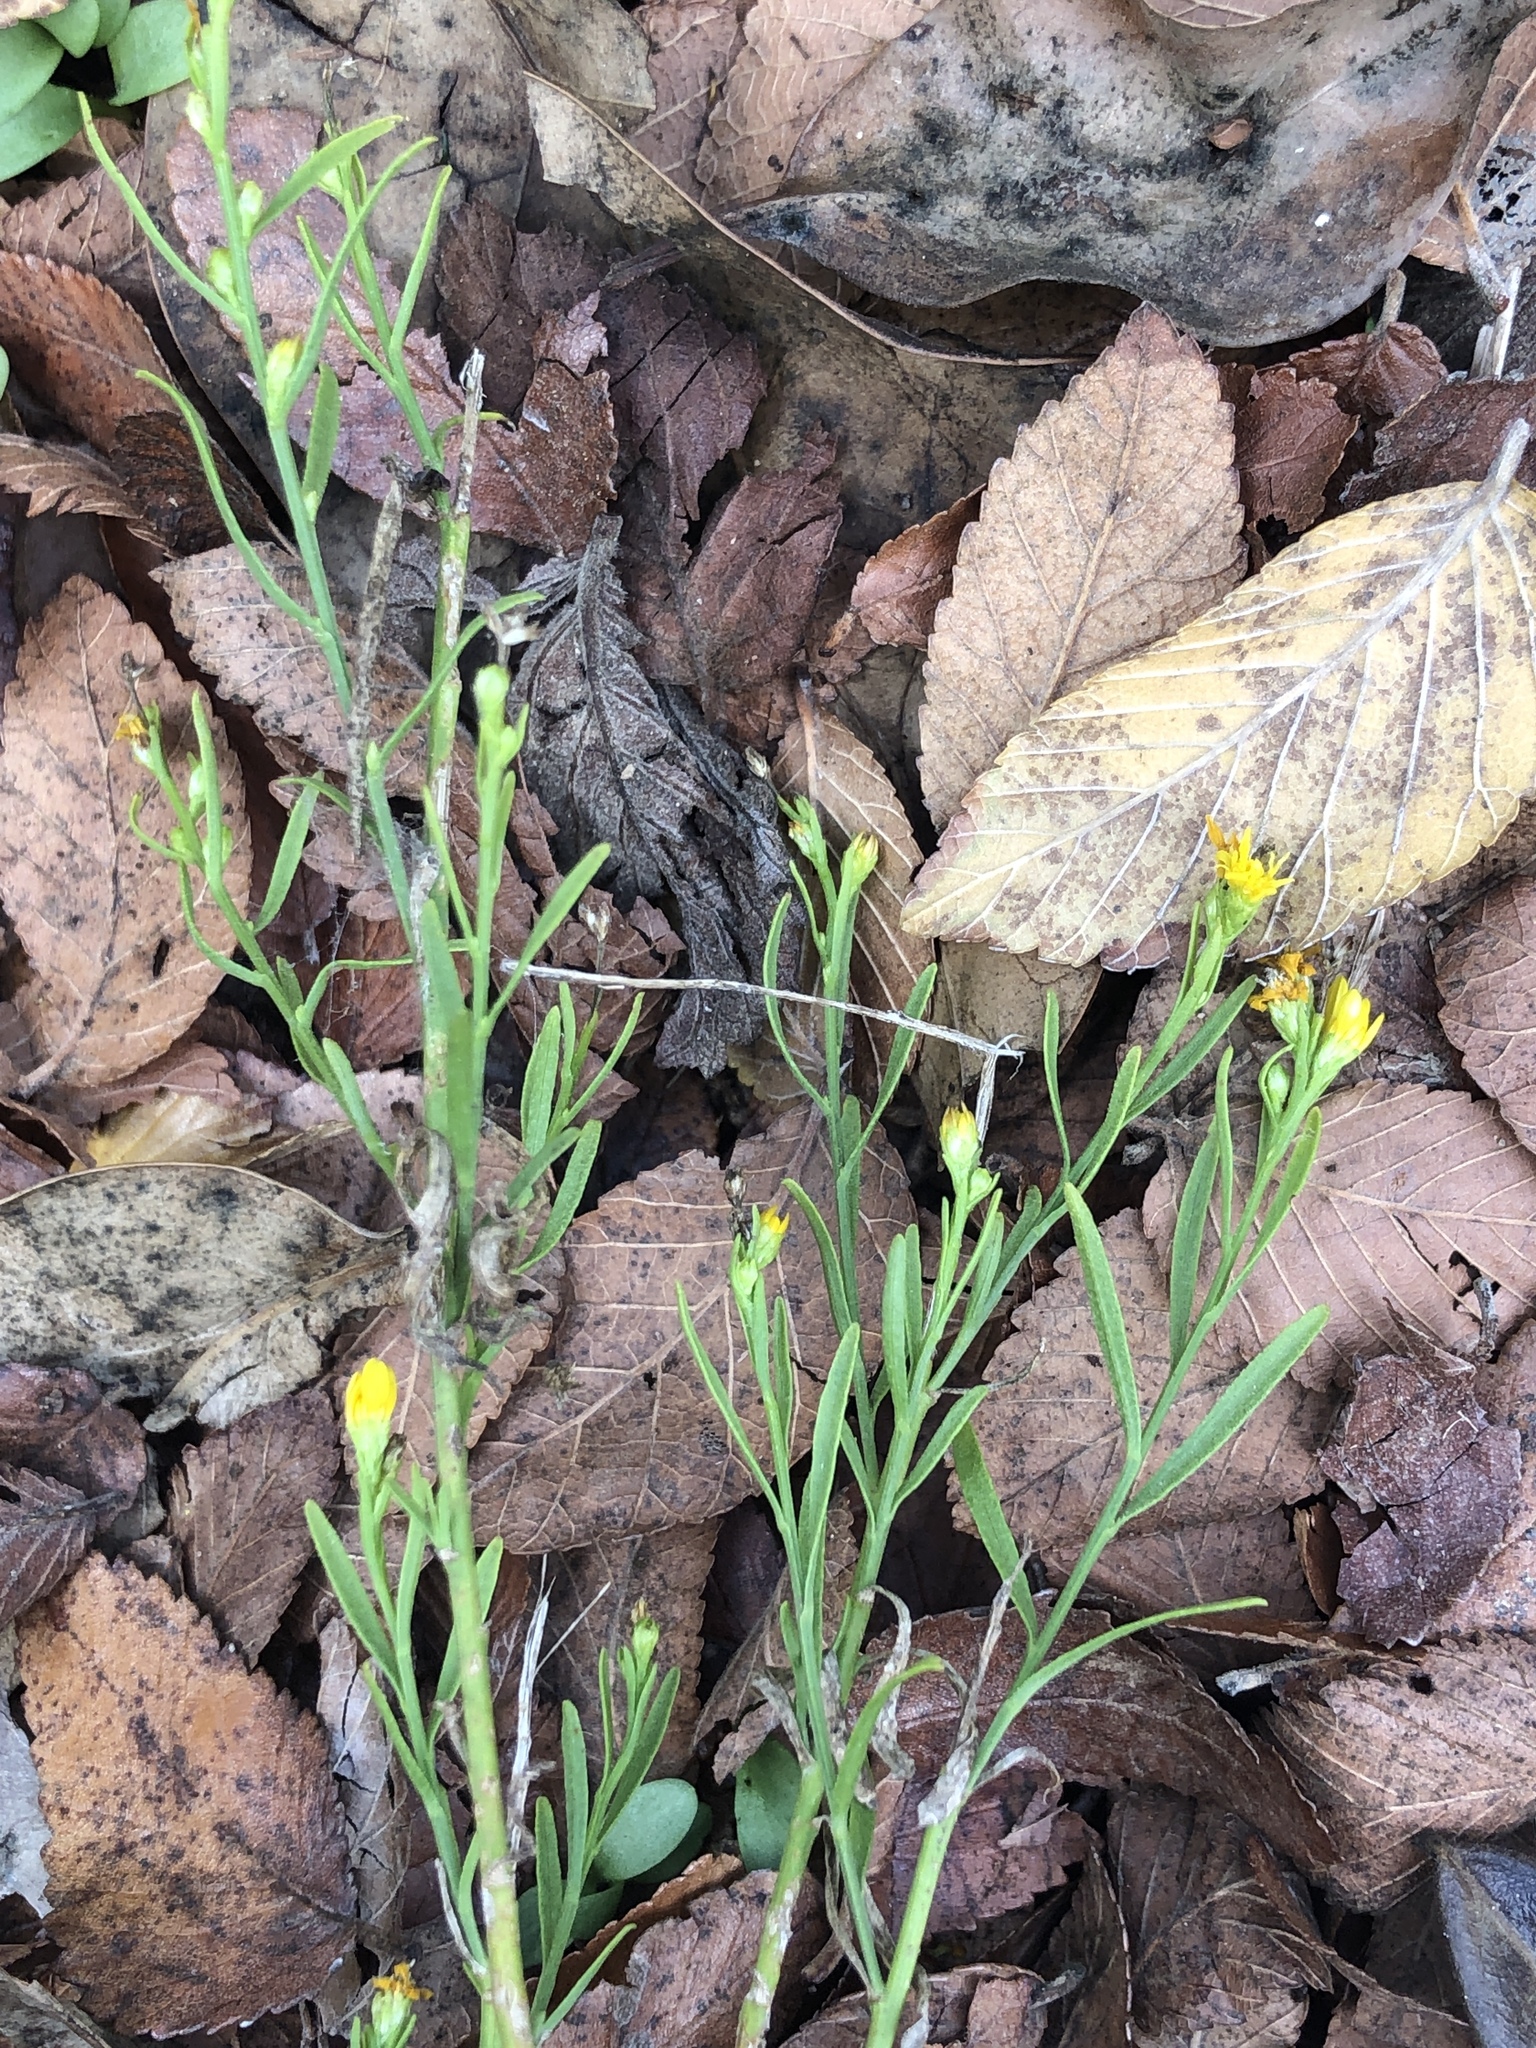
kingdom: Plantae
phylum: Tracheophyta
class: Magnoliopsida
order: Asterales
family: Asteraceae
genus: Gutierrezia
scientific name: Gutierrezia texana
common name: Texas snakeweed
